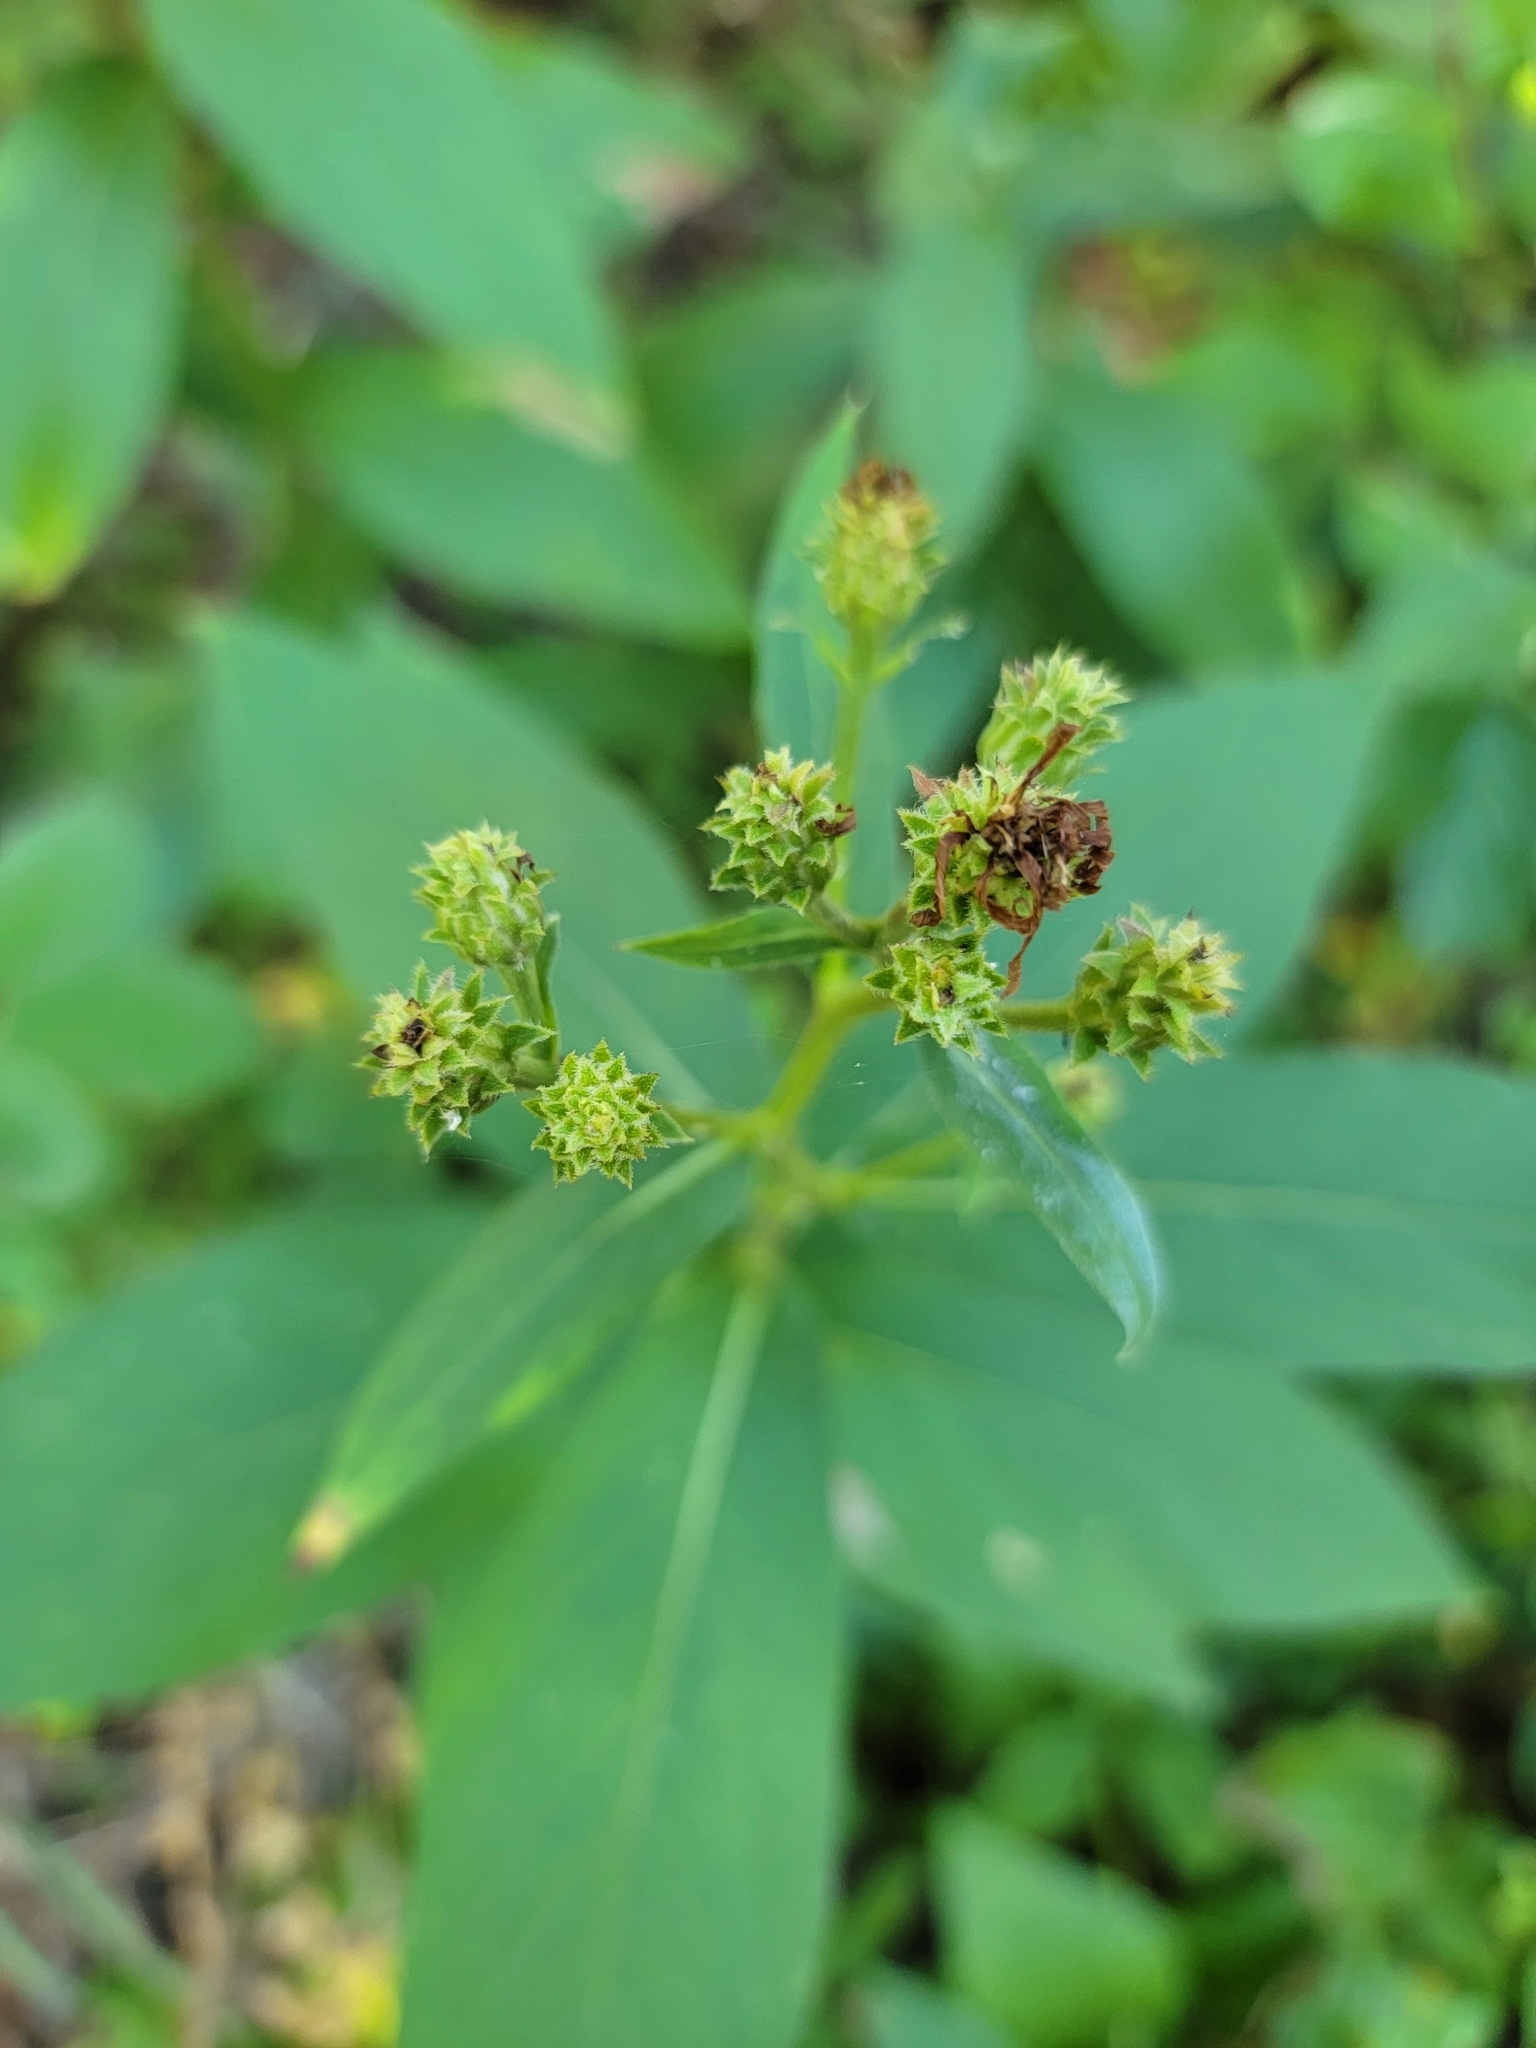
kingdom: Plantae
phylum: Tracheophyta
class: Magnoliopsida
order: Asterales
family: Asteraceae
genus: Eurybia
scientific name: Eurybia conspicua
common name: Showy aster
